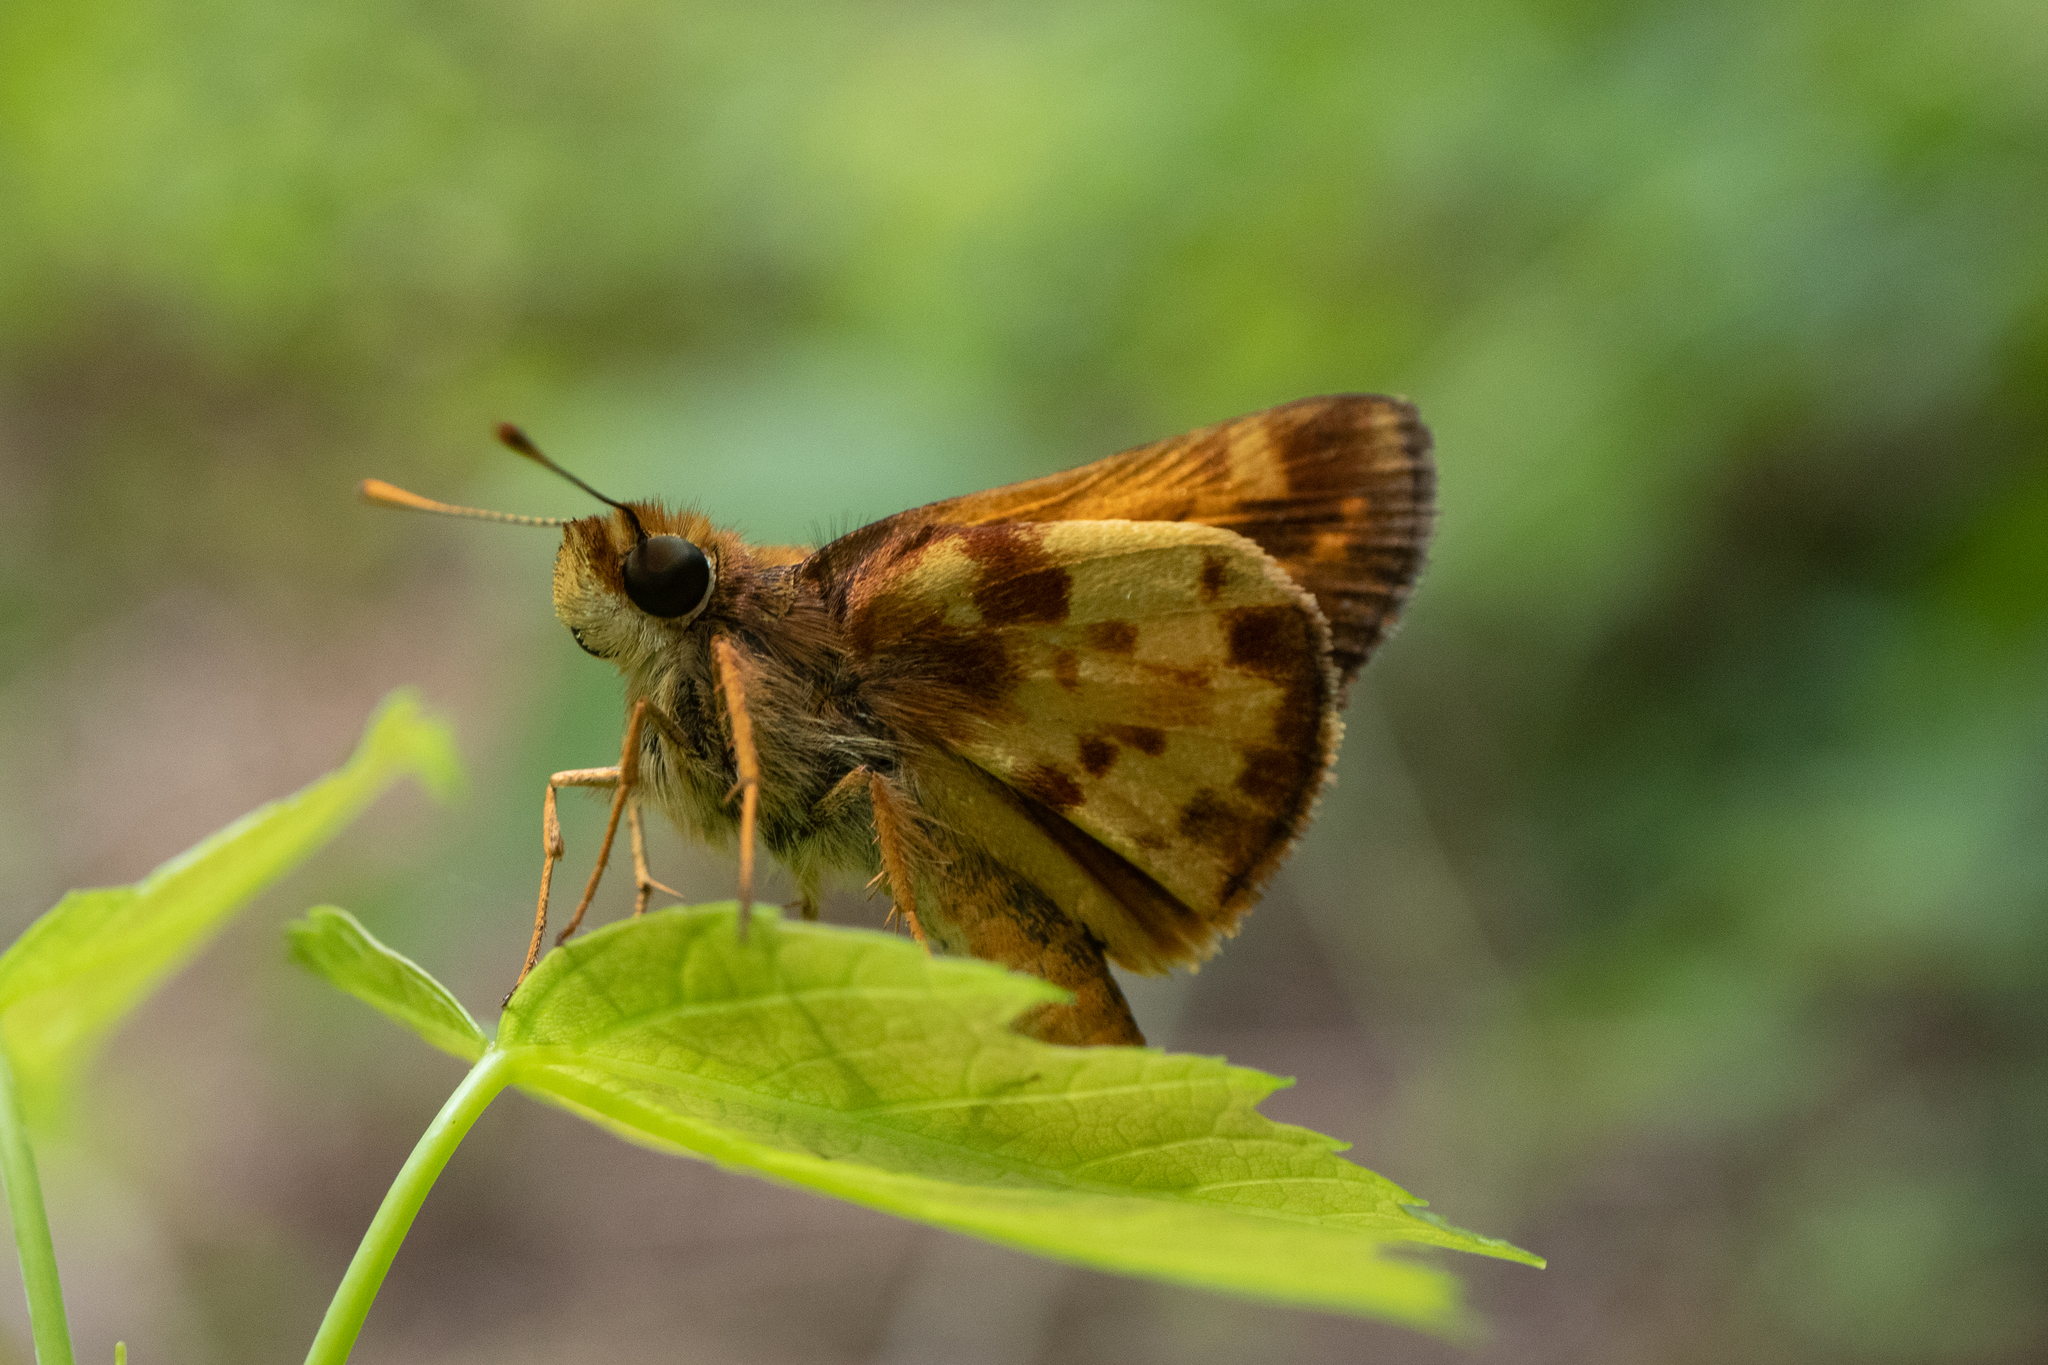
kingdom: Animalia
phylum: Arthropoda
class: Insecta
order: Lepidoptera
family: Hesperiidae
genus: Lon
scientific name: Lon zabulon
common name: Zabulon skipper
